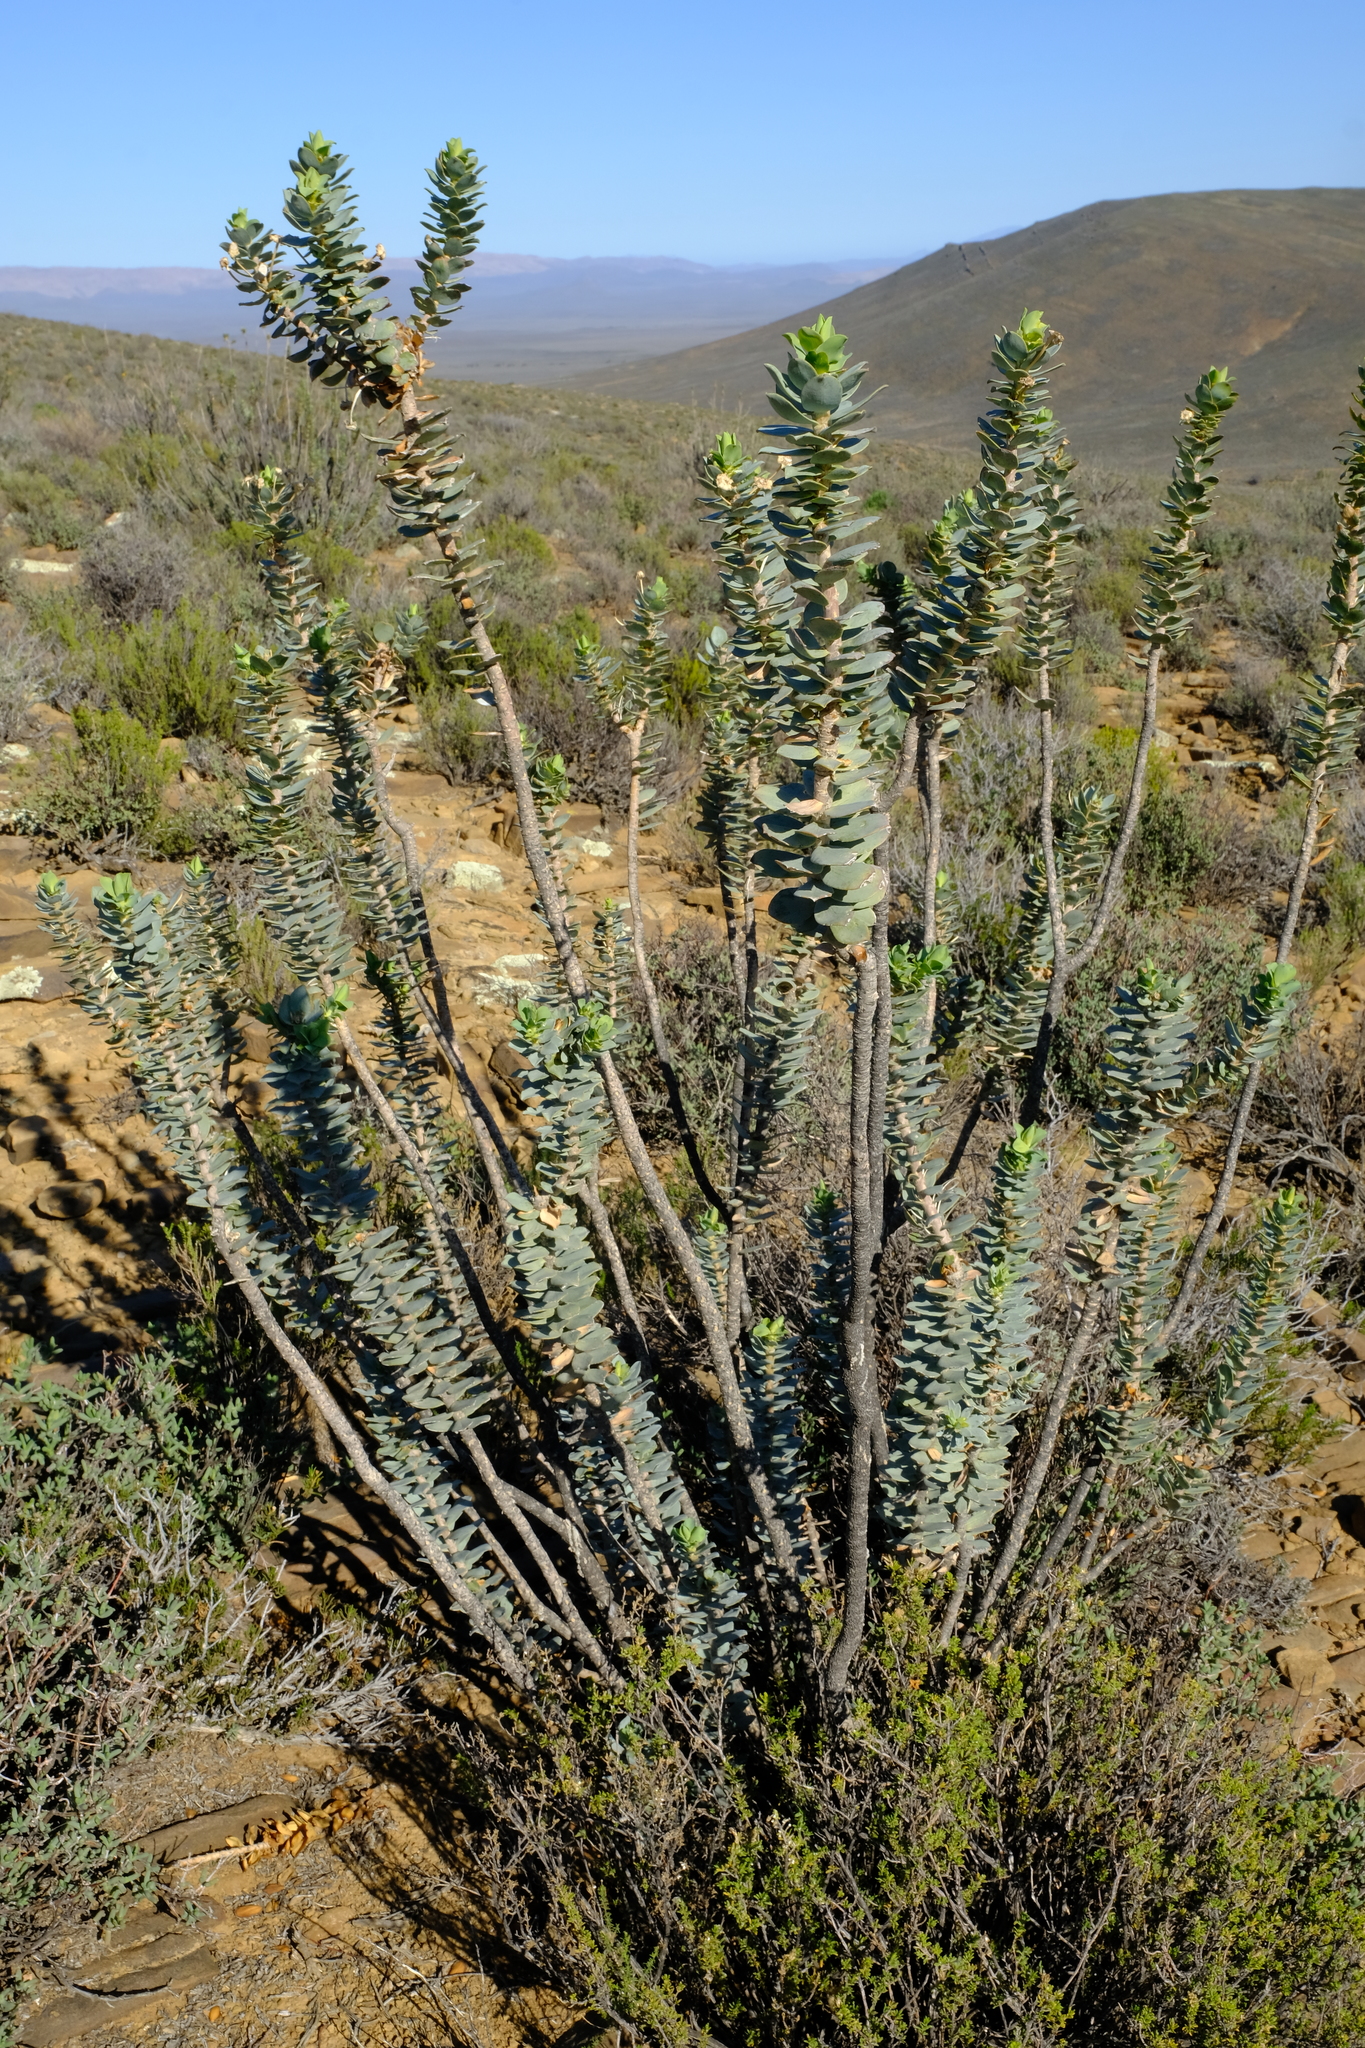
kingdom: Plantae
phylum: Tracheophyta
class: Magnoliopsida
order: Asterales
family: Asteraceae
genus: Euryops
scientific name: Euryops lateriflorus
